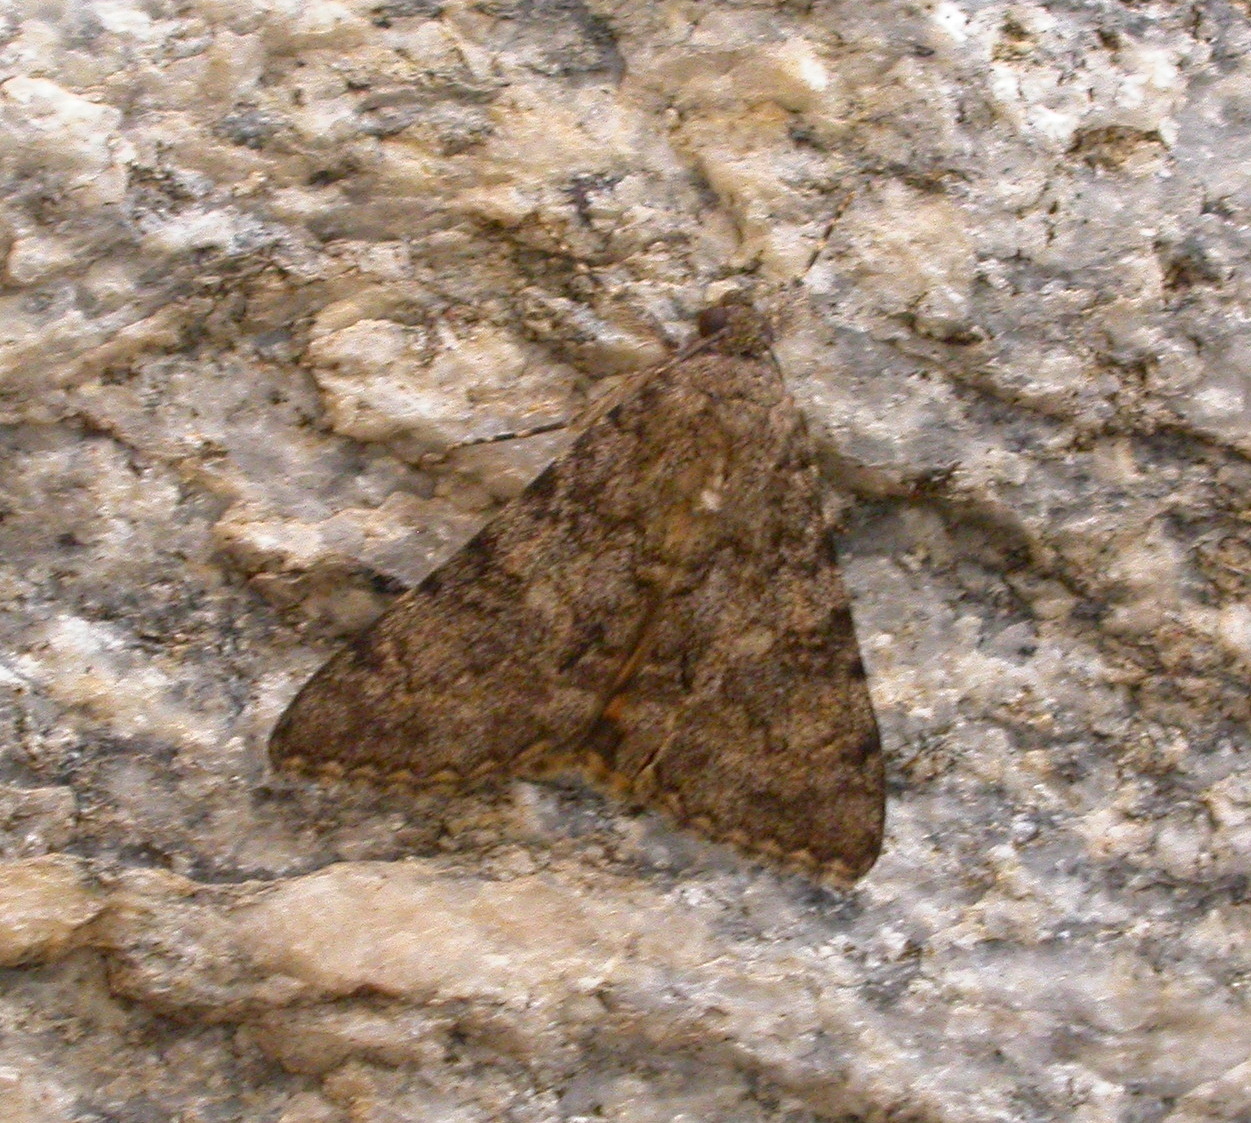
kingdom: Animalia
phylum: Arthropoda
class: Insecta
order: Lepidoptera
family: Erebidae
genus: Catocala
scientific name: Catocala benjamini
